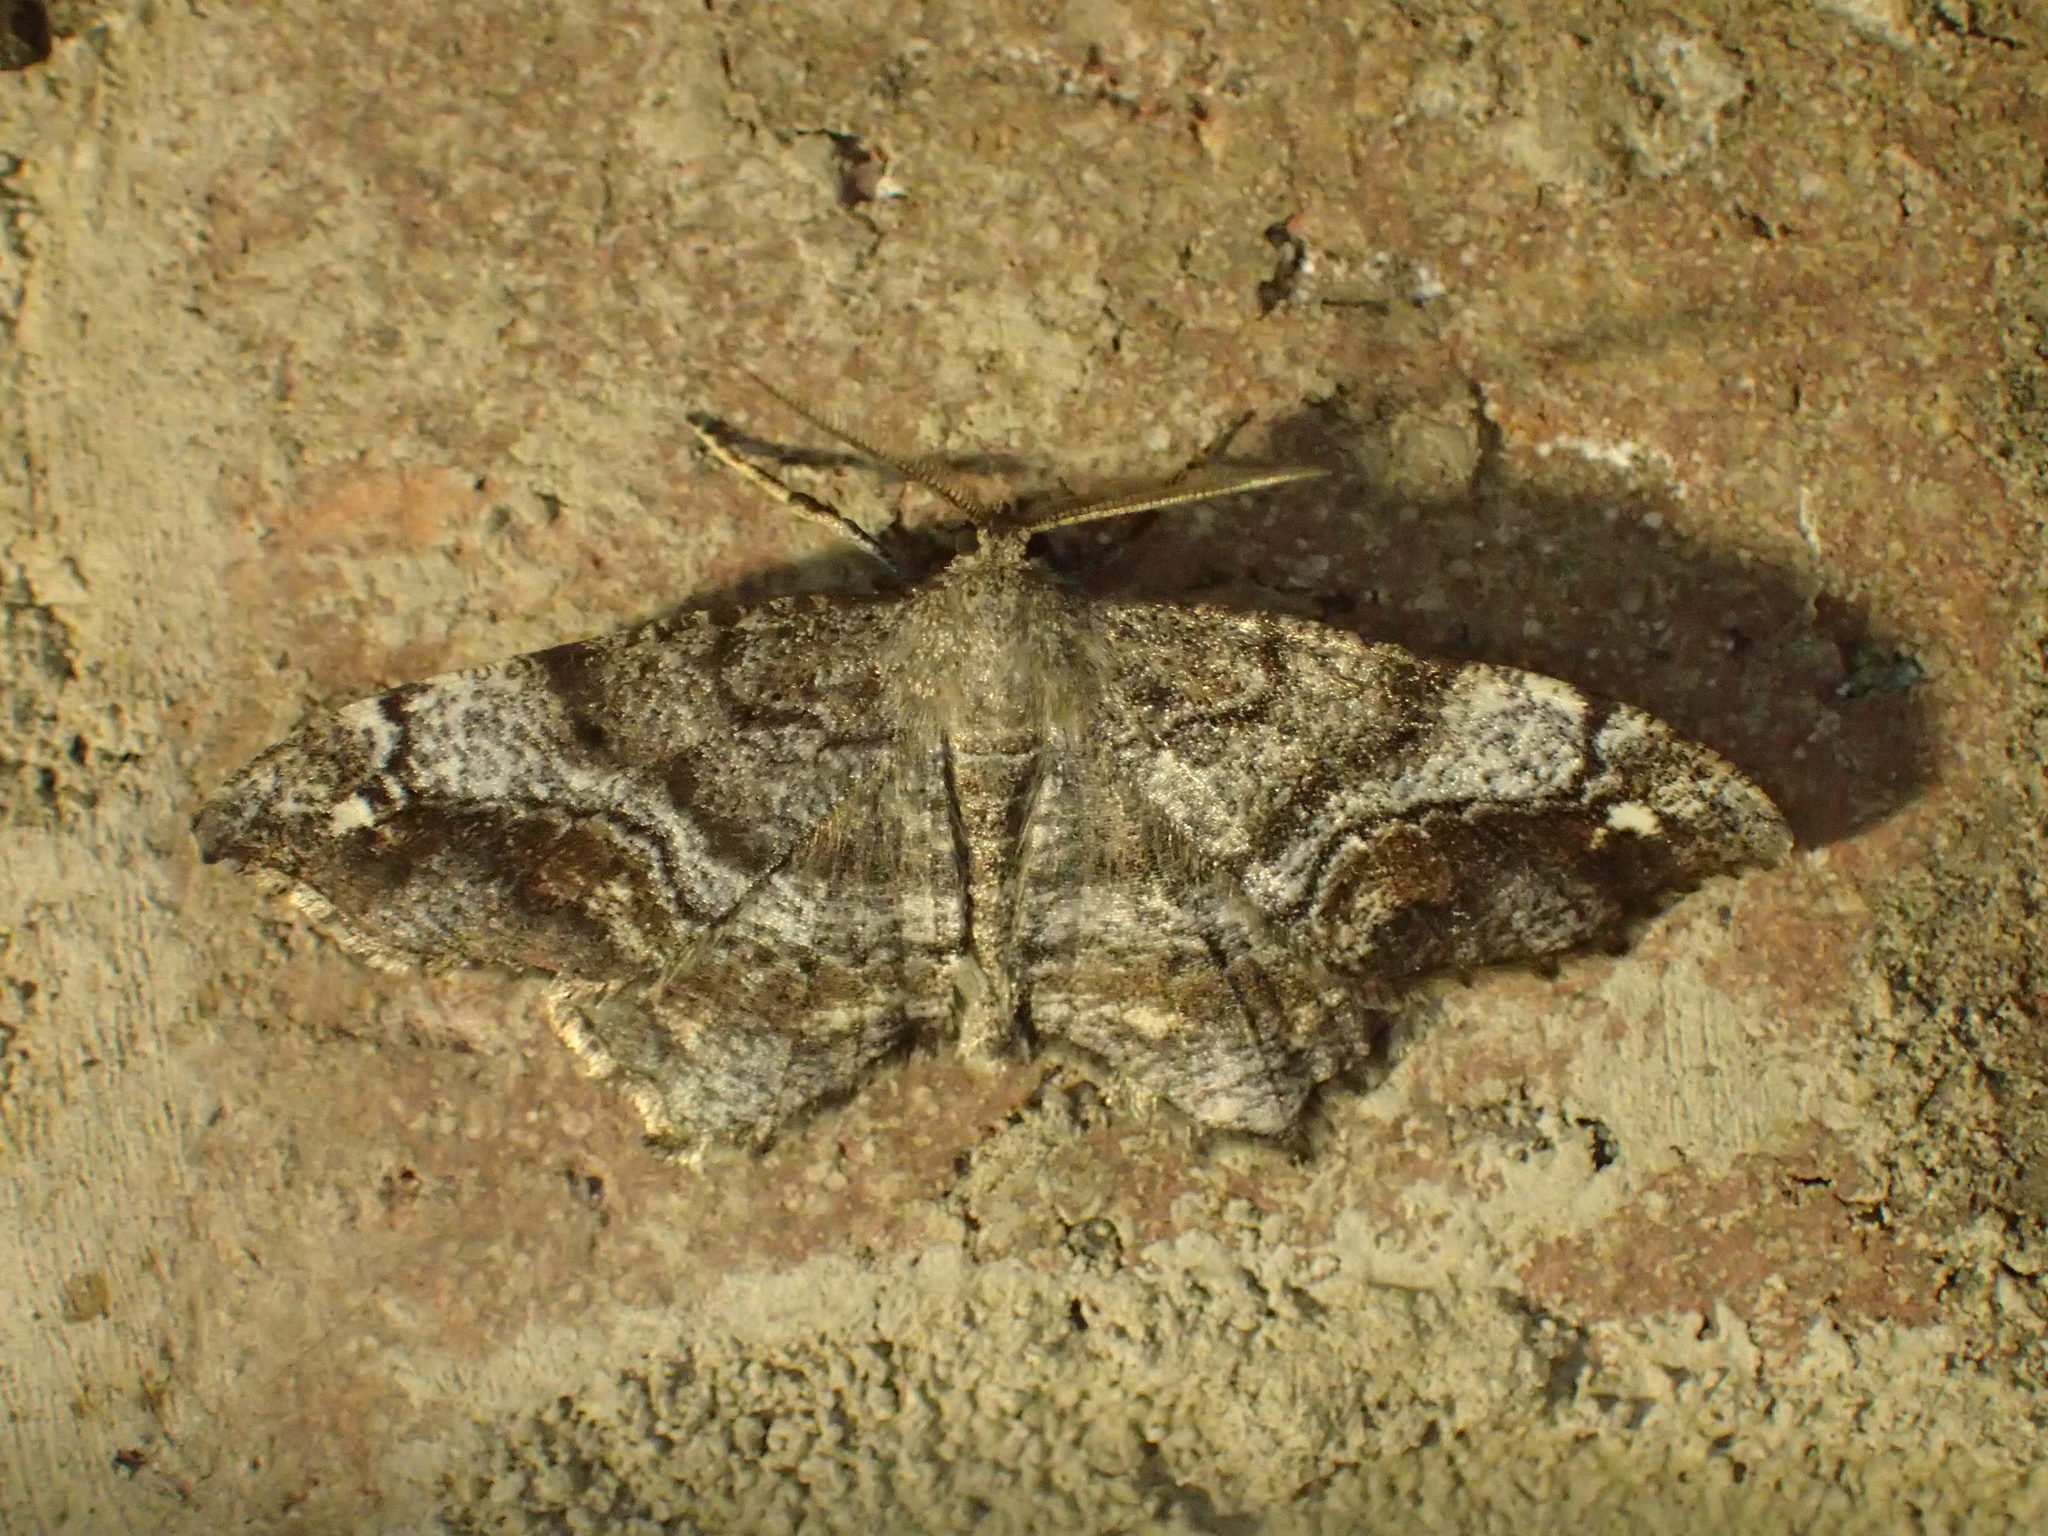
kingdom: Animalia
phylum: Arthropoda
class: Insecta
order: Lepidoptera
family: Geometridae
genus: Macaria
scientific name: Macaria granitata
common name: Granite moth
